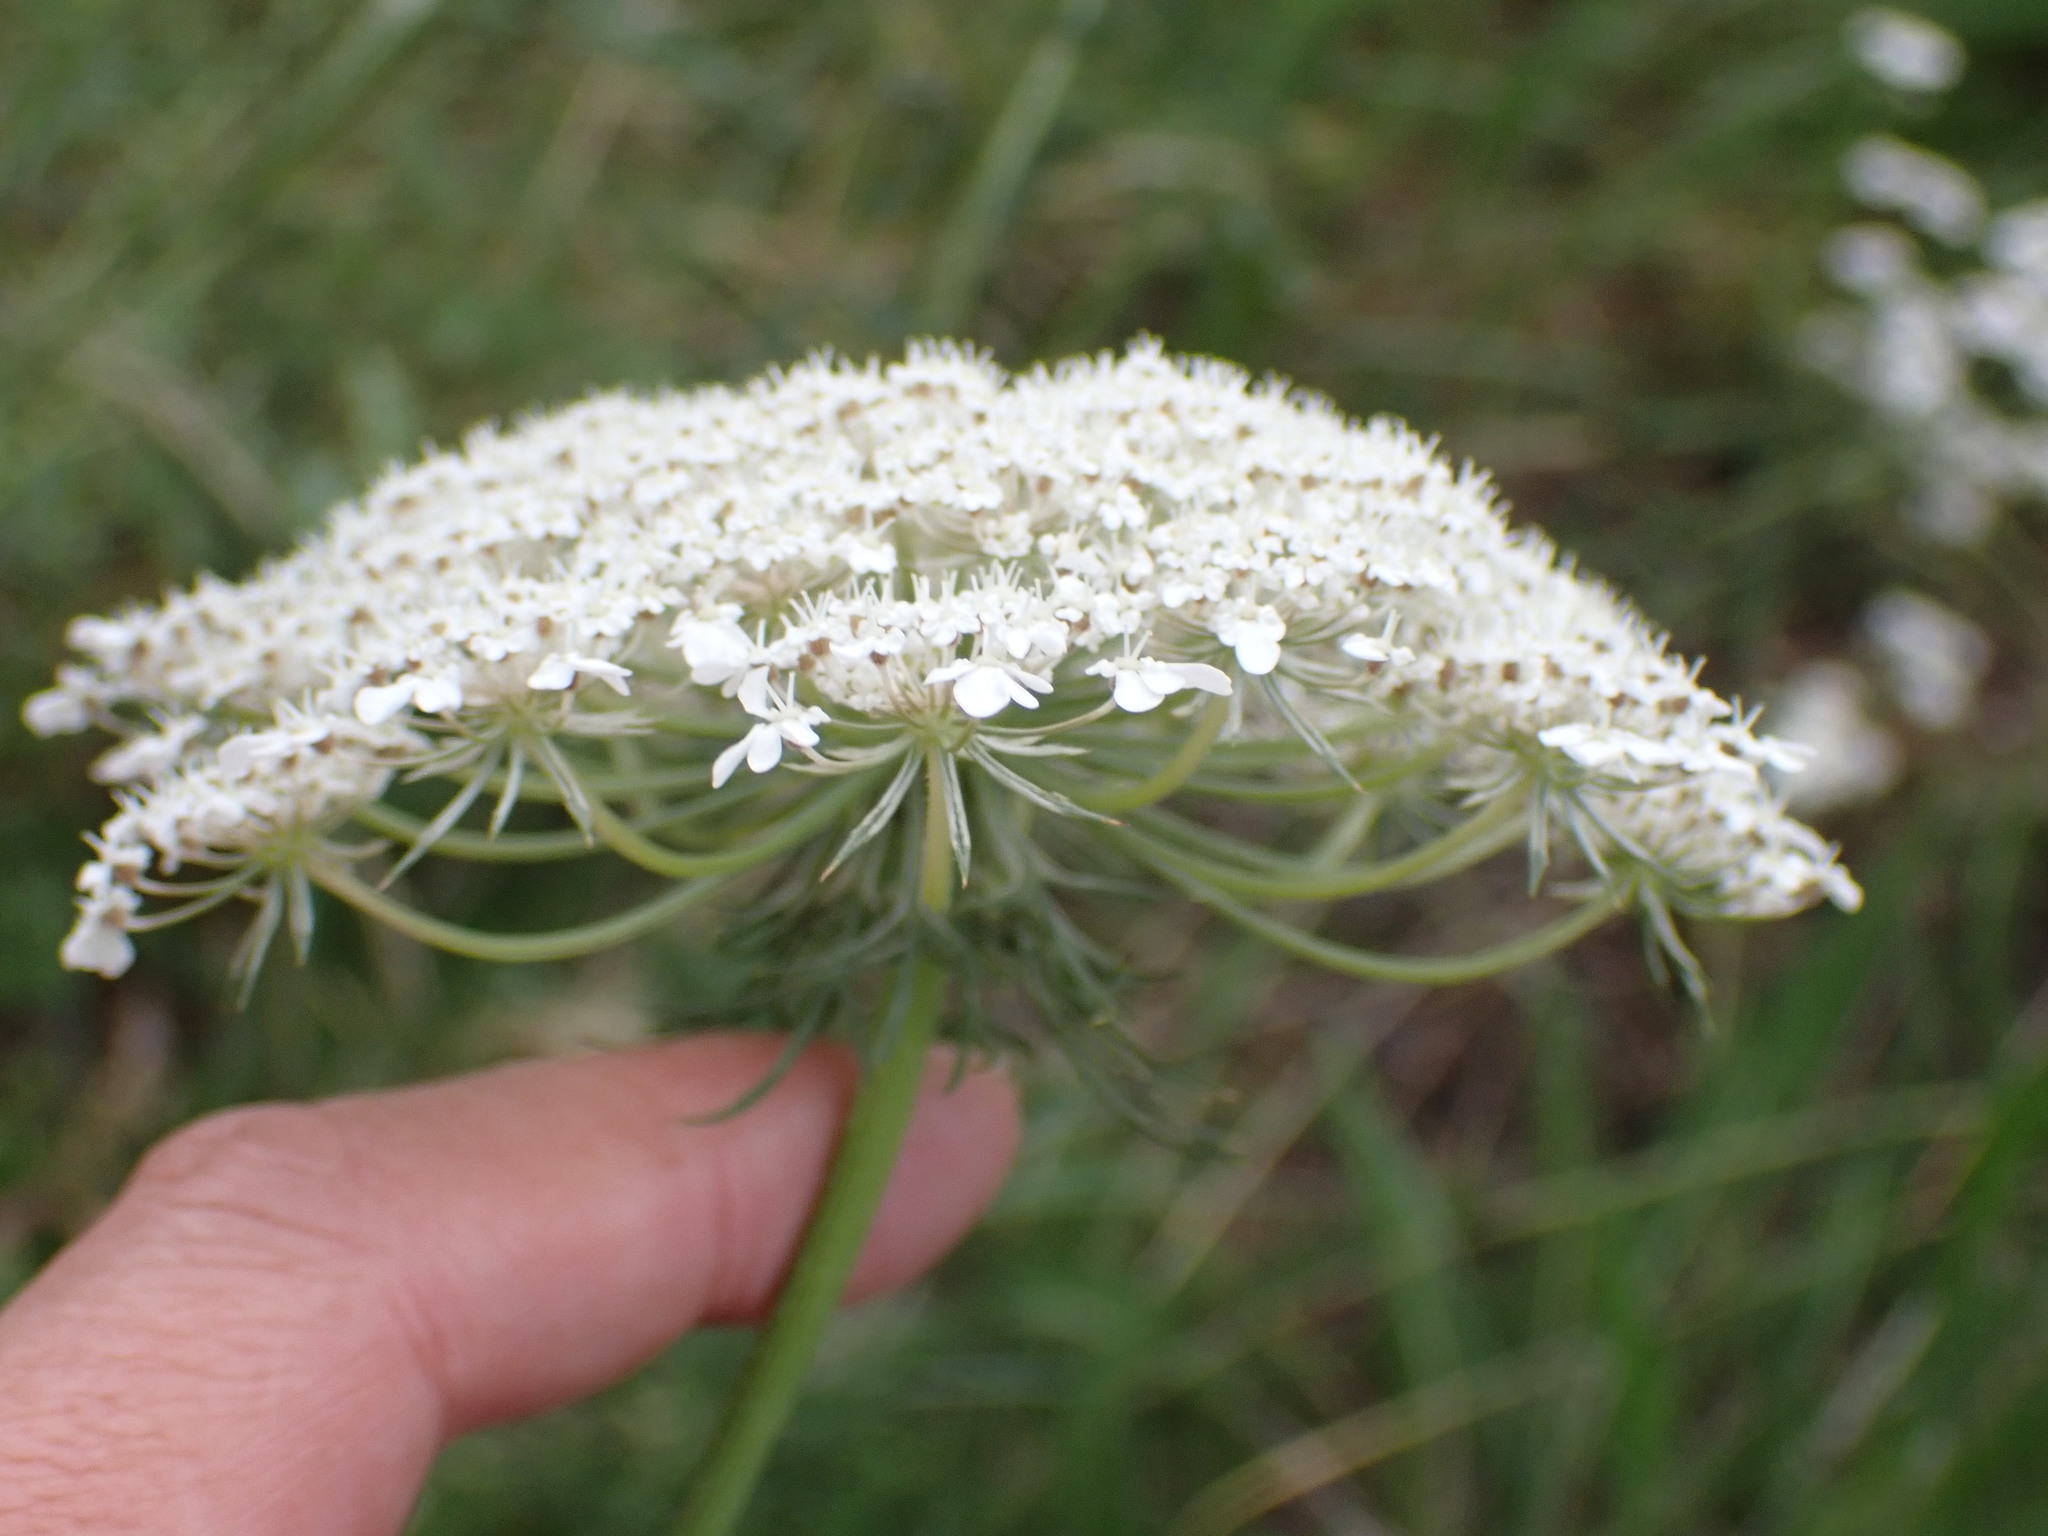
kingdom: Plantae
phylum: Tracheophyta
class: Magnoliopsida
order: Apiales
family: Apiaceae
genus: Daucus
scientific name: Daucus carota
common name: Wild carrot
